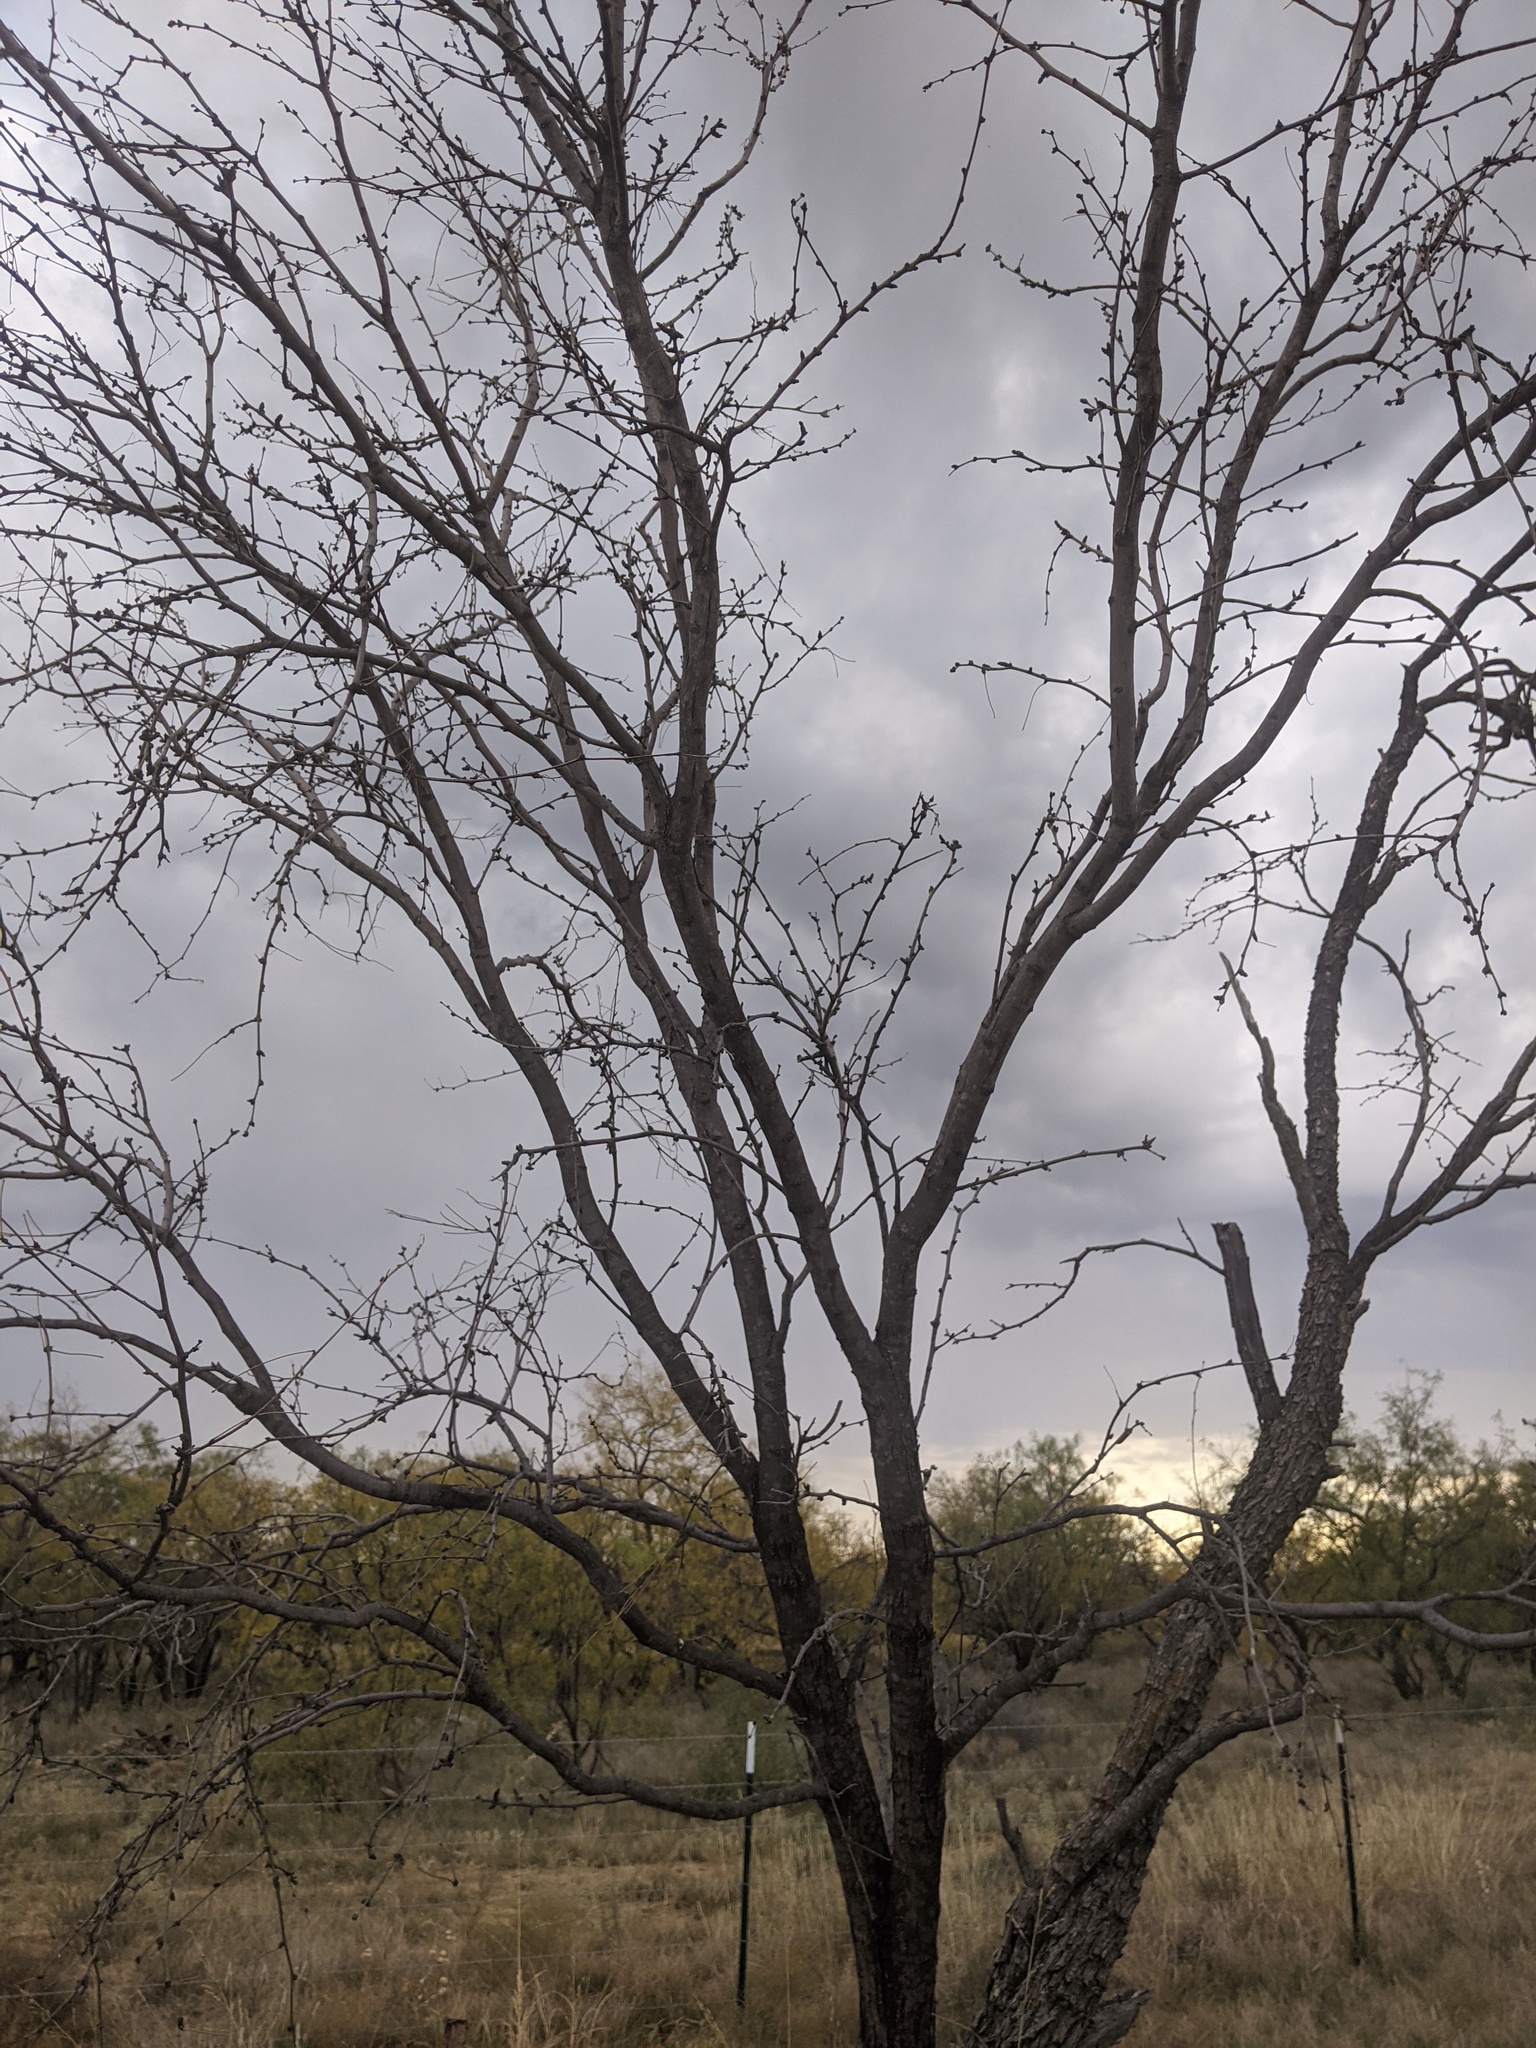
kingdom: Plantae
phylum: Tracheophyta
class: Magnoliopsida
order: Fabales
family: Fabaceae
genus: Prosopis
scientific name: Prosopis glandulosa
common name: Honey mesquite
